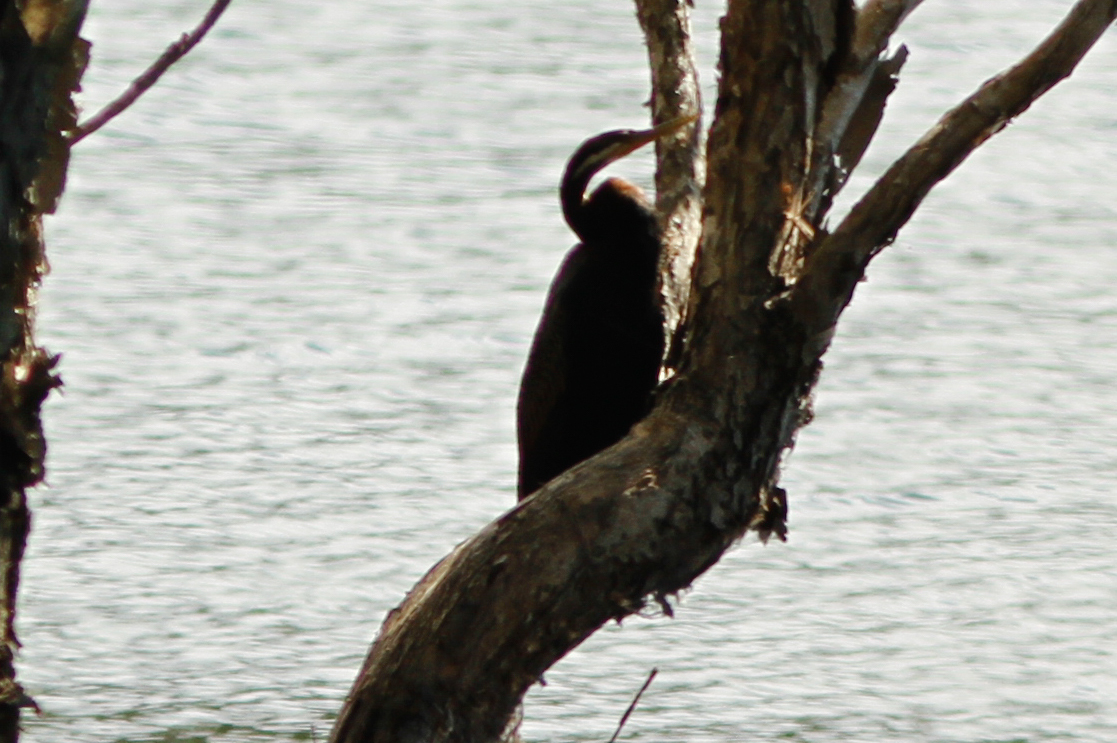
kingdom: Animalia
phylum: Chordata
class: Aves
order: Suliformes
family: Anhingidae
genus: Anhinga
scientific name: Anhinga novaehollandiae
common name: Australasian darter
